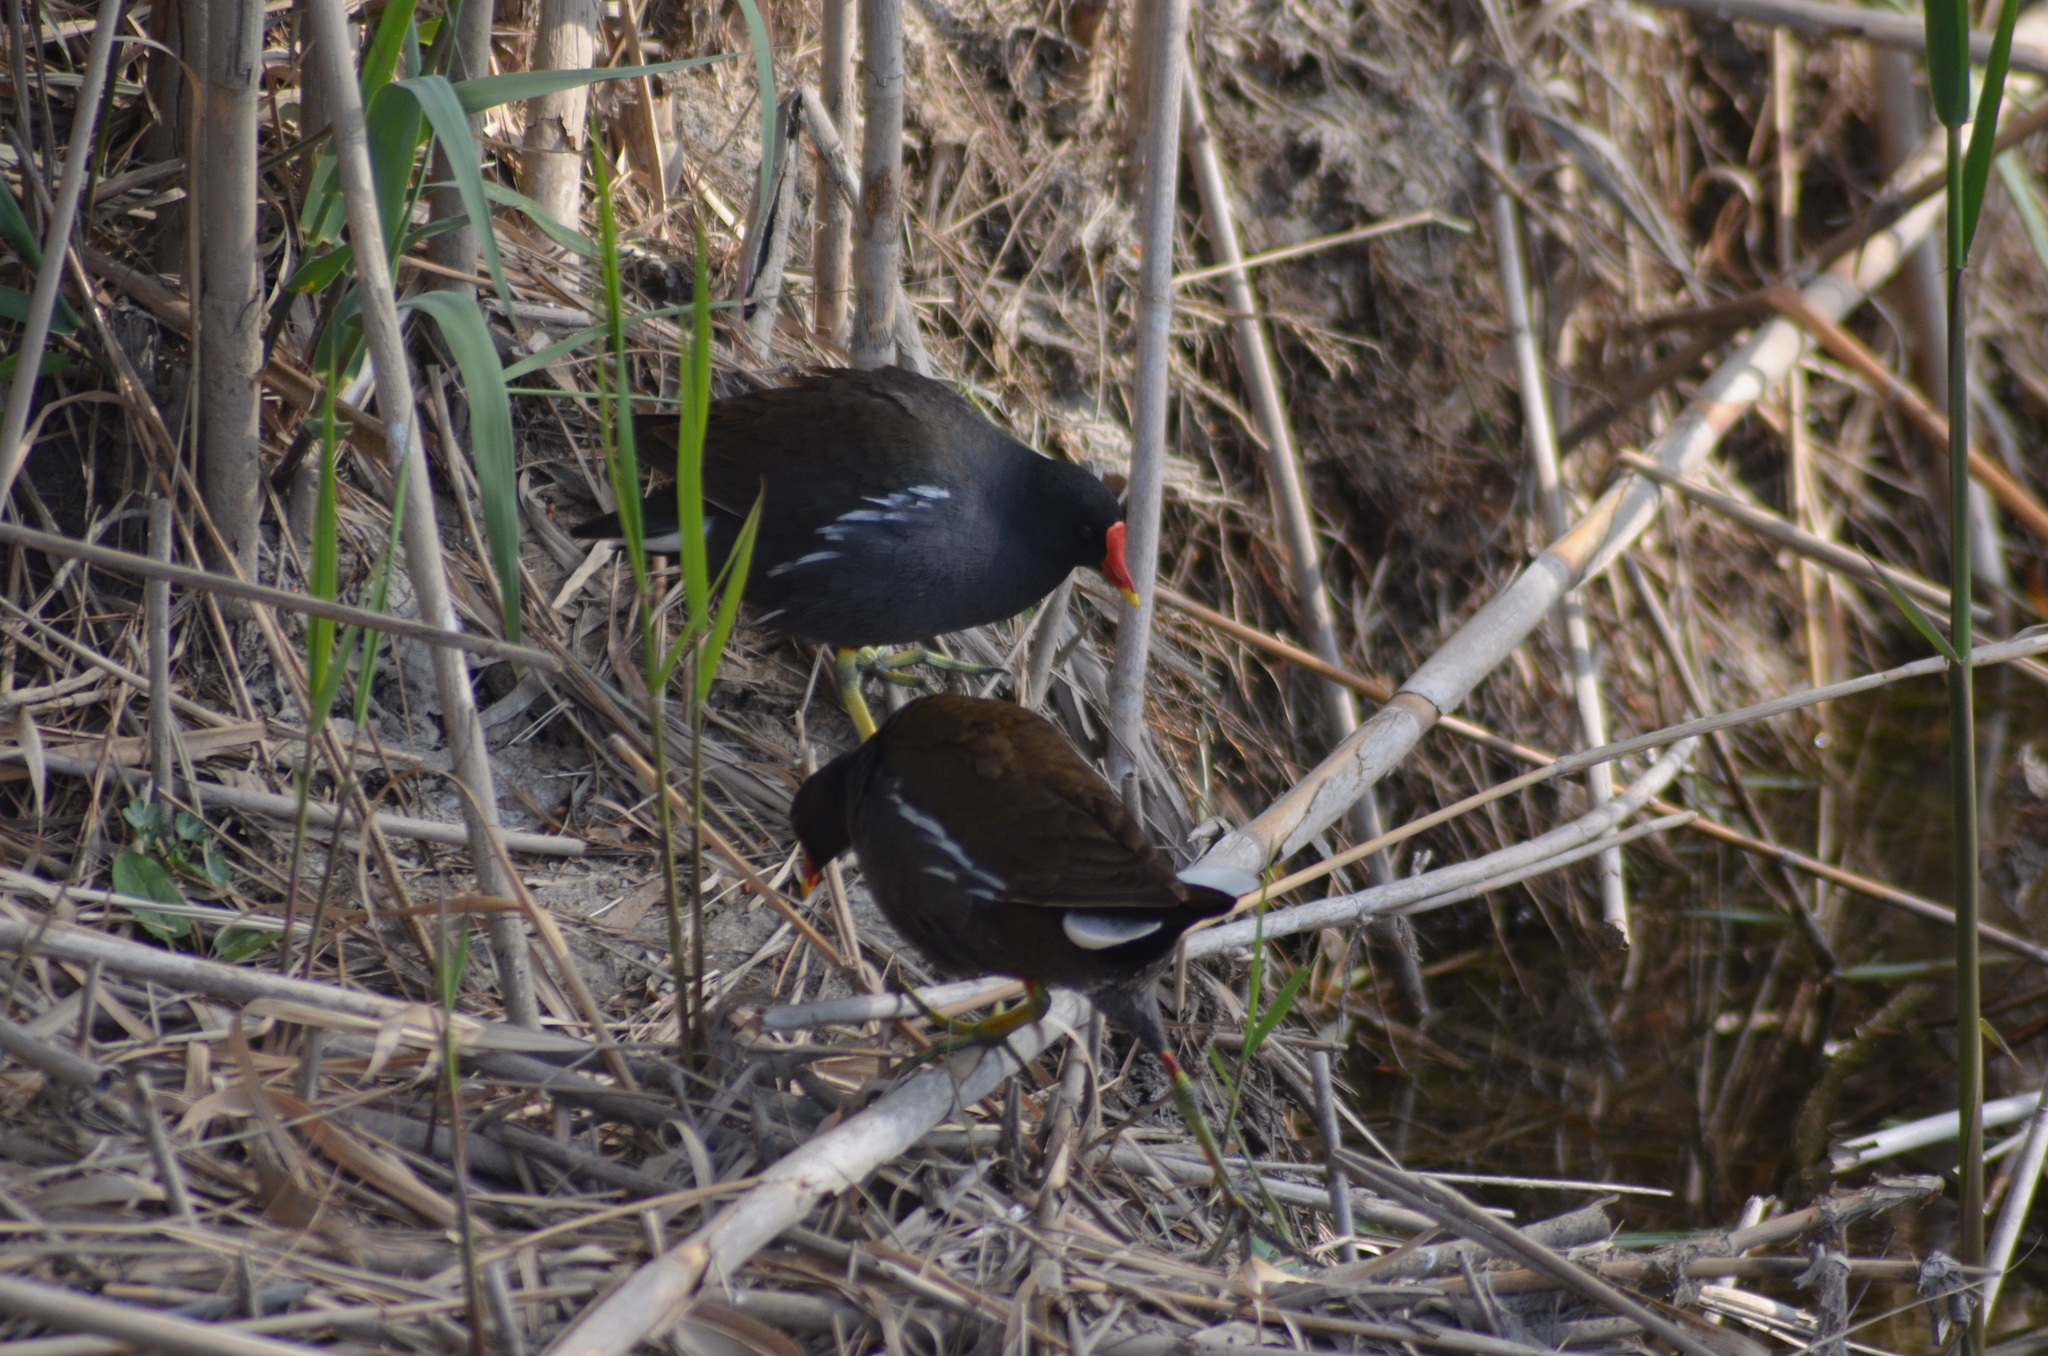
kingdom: Animalia
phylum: Chordata
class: Aves
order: Gruiformes
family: Rallidae
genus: Gallinula
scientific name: Gallinula chloropus
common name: Common moorhen
